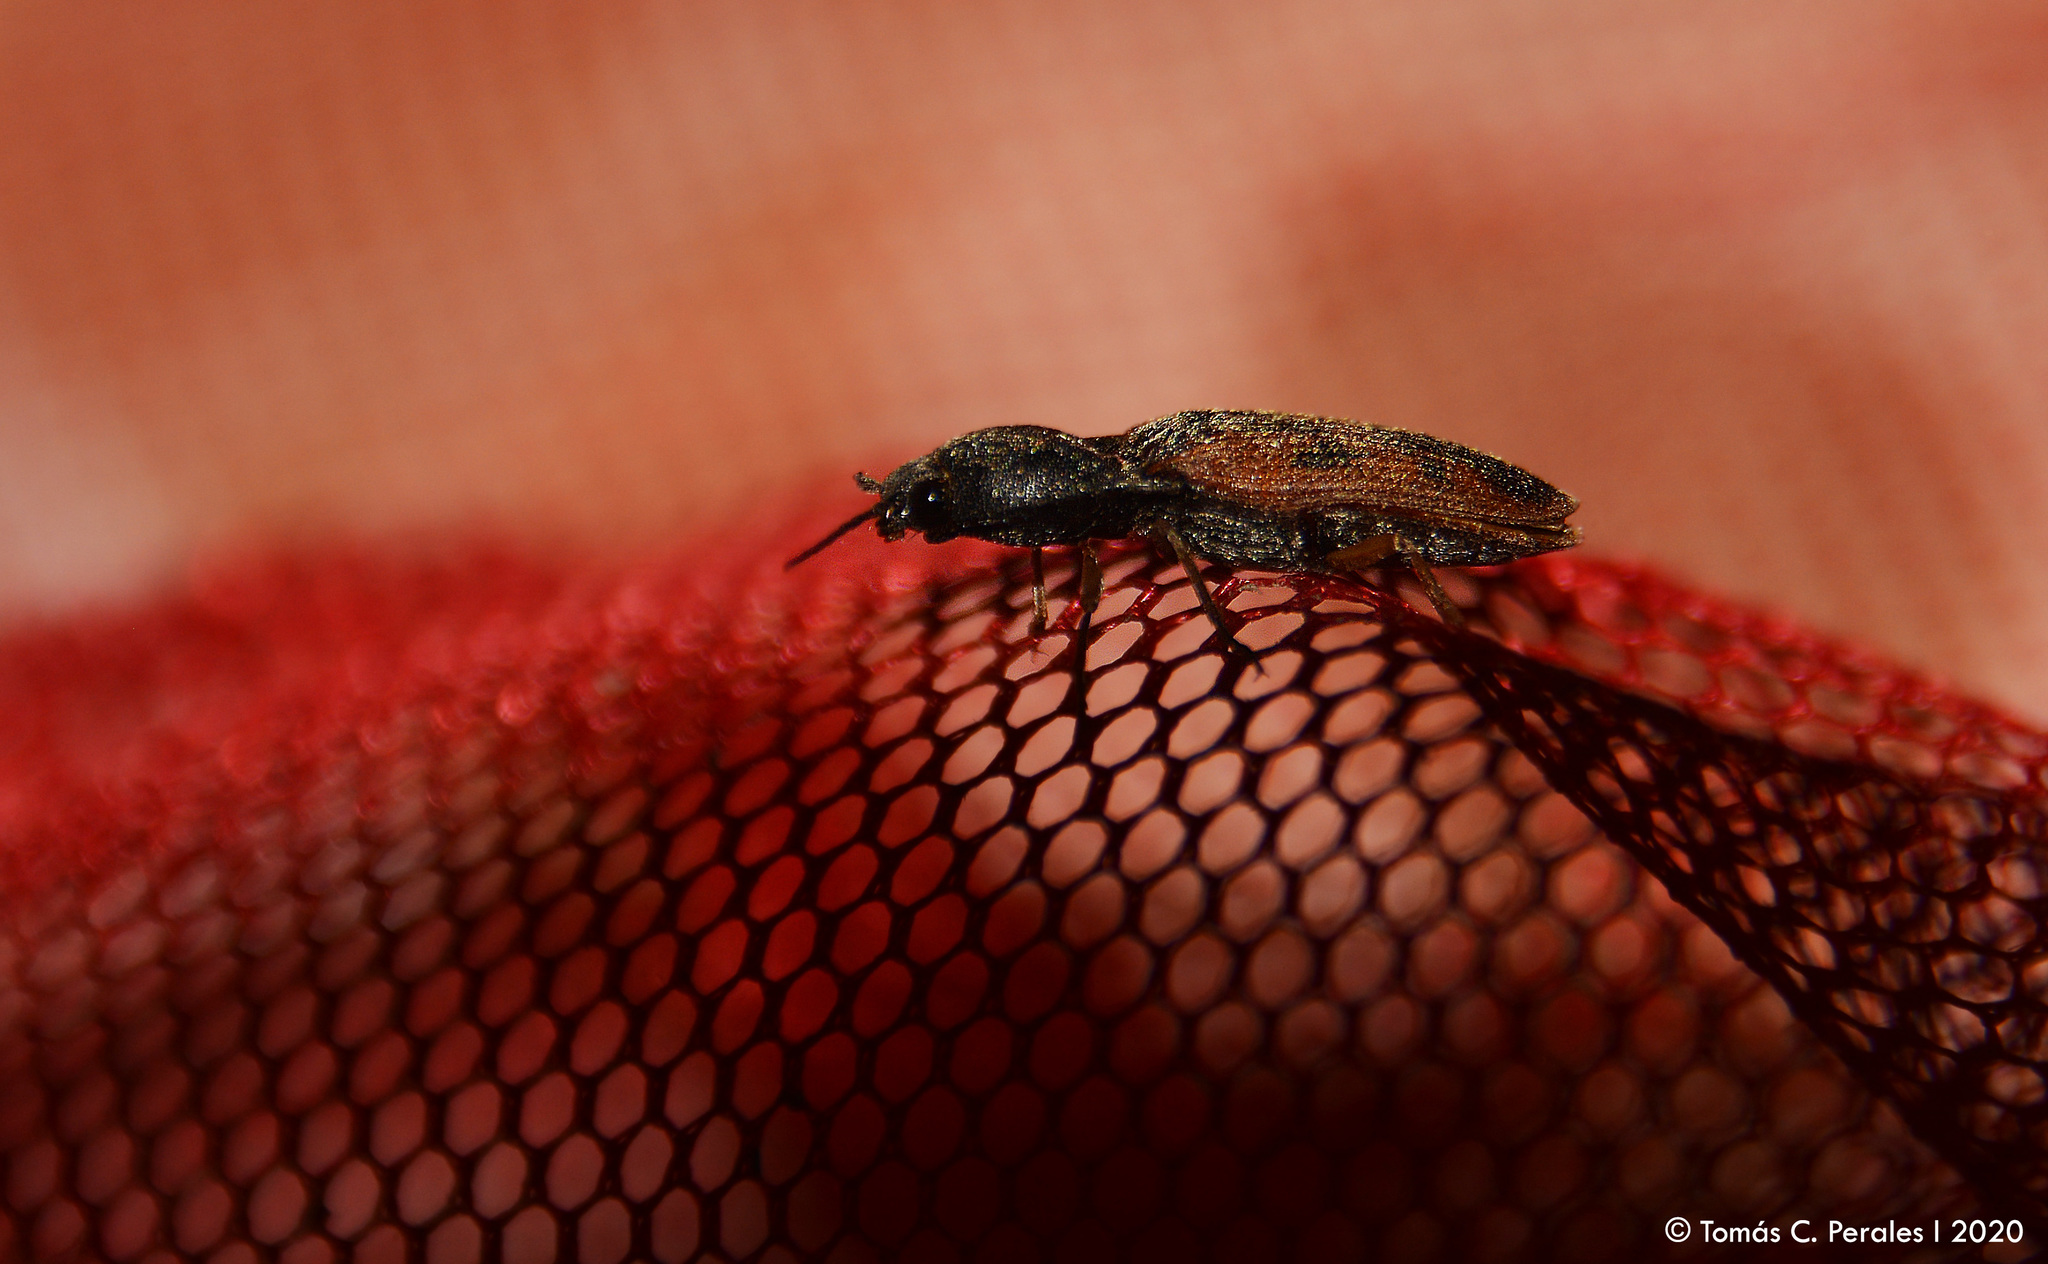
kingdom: Animalia
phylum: Arthropoda
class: Insecta
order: Coleoptera
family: Elateridae
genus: Monocrepidius
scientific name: Monocrepidius
